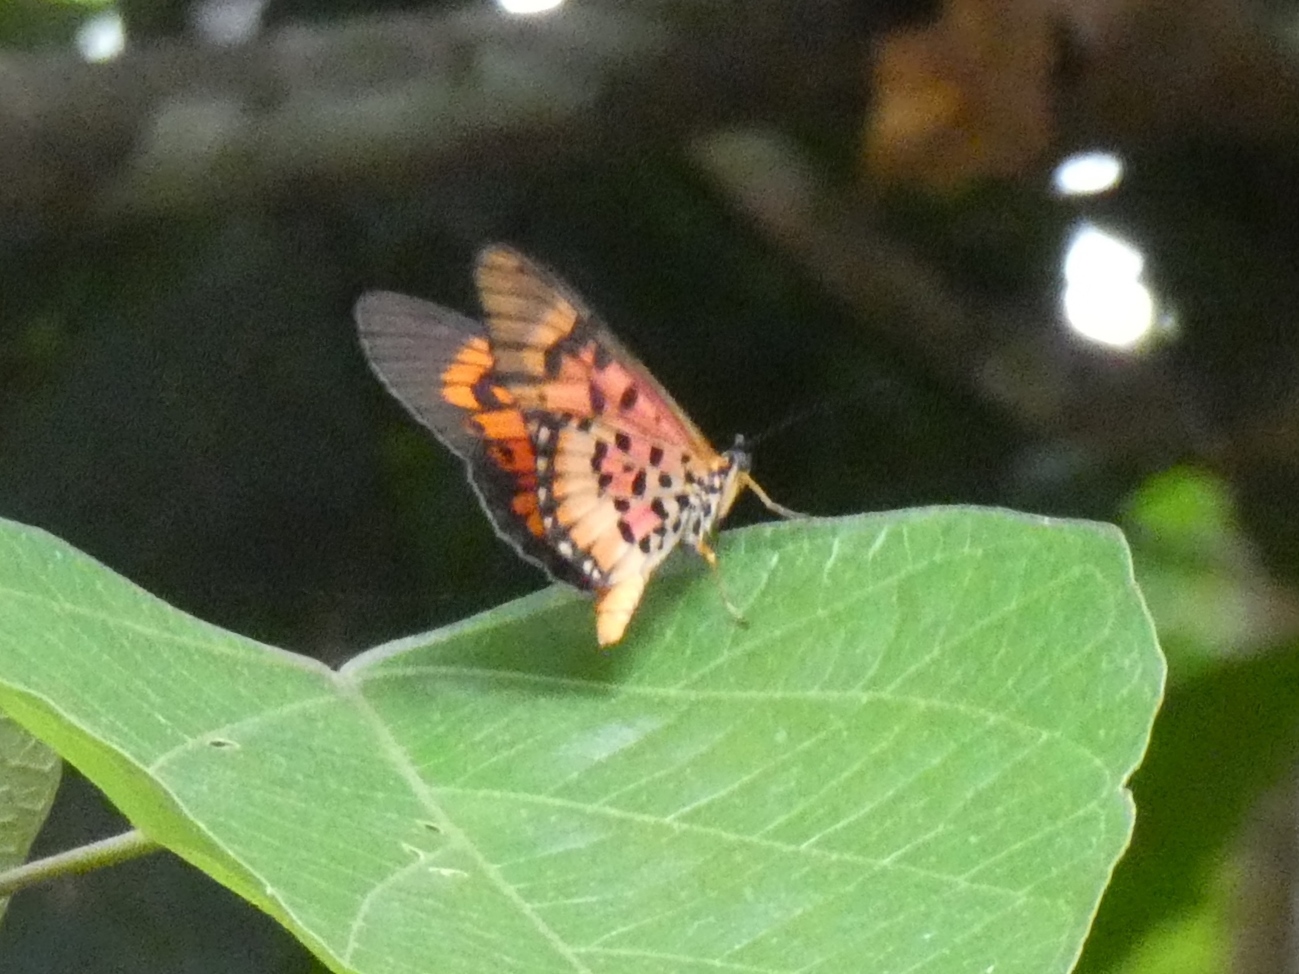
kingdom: Animalia
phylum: Arthropoda
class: Insecta
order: Lepidoptera
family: Nymphalidae
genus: Rubraea
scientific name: Rubraea
